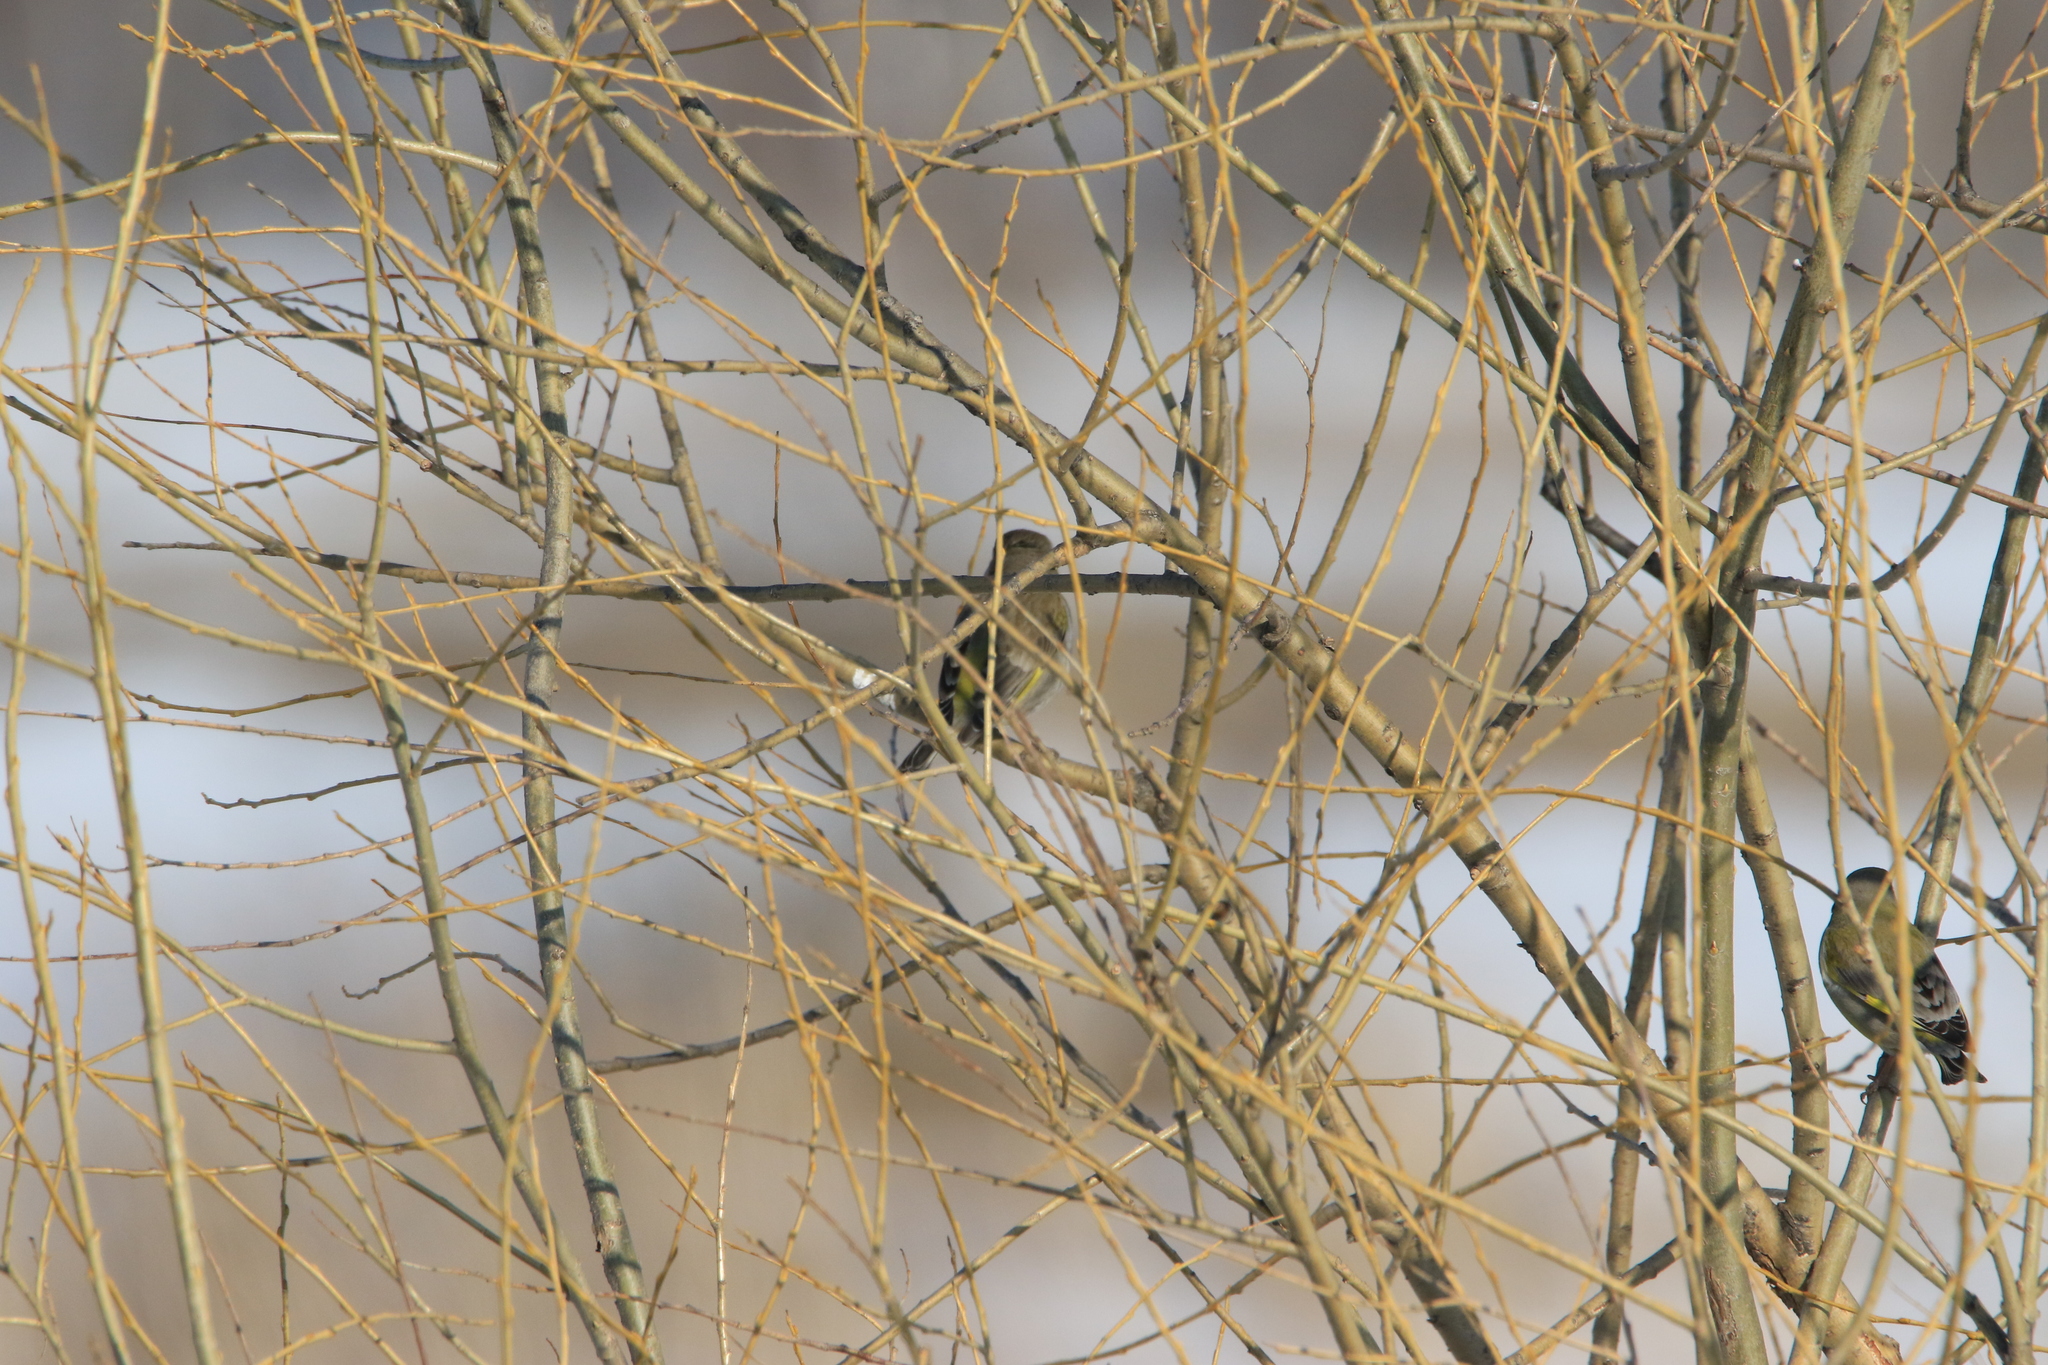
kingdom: Plantae
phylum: Tracheophyta
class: Liliopsida
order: Poales
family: Poaceae
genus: Chloris
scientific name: Chloris chloris
